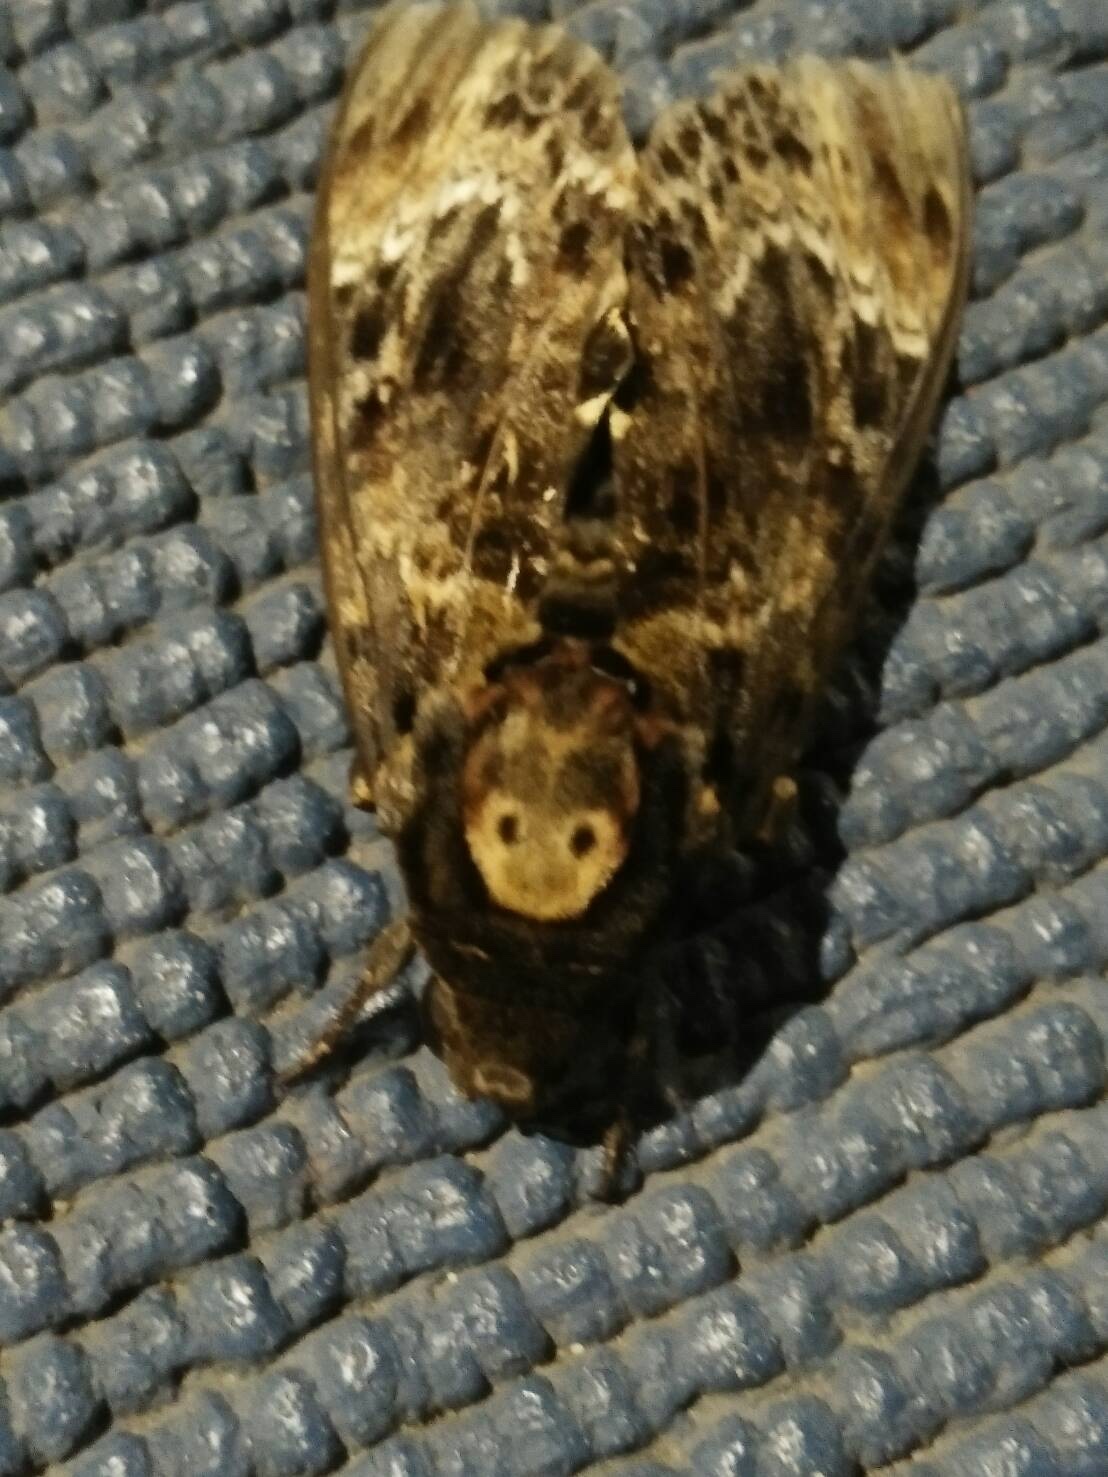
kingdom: Animalia
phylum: Arthropoda
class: Insecta
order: Lepidoptera
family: Sphingidae
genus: Acherontia
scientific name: Acherontia lachesis
